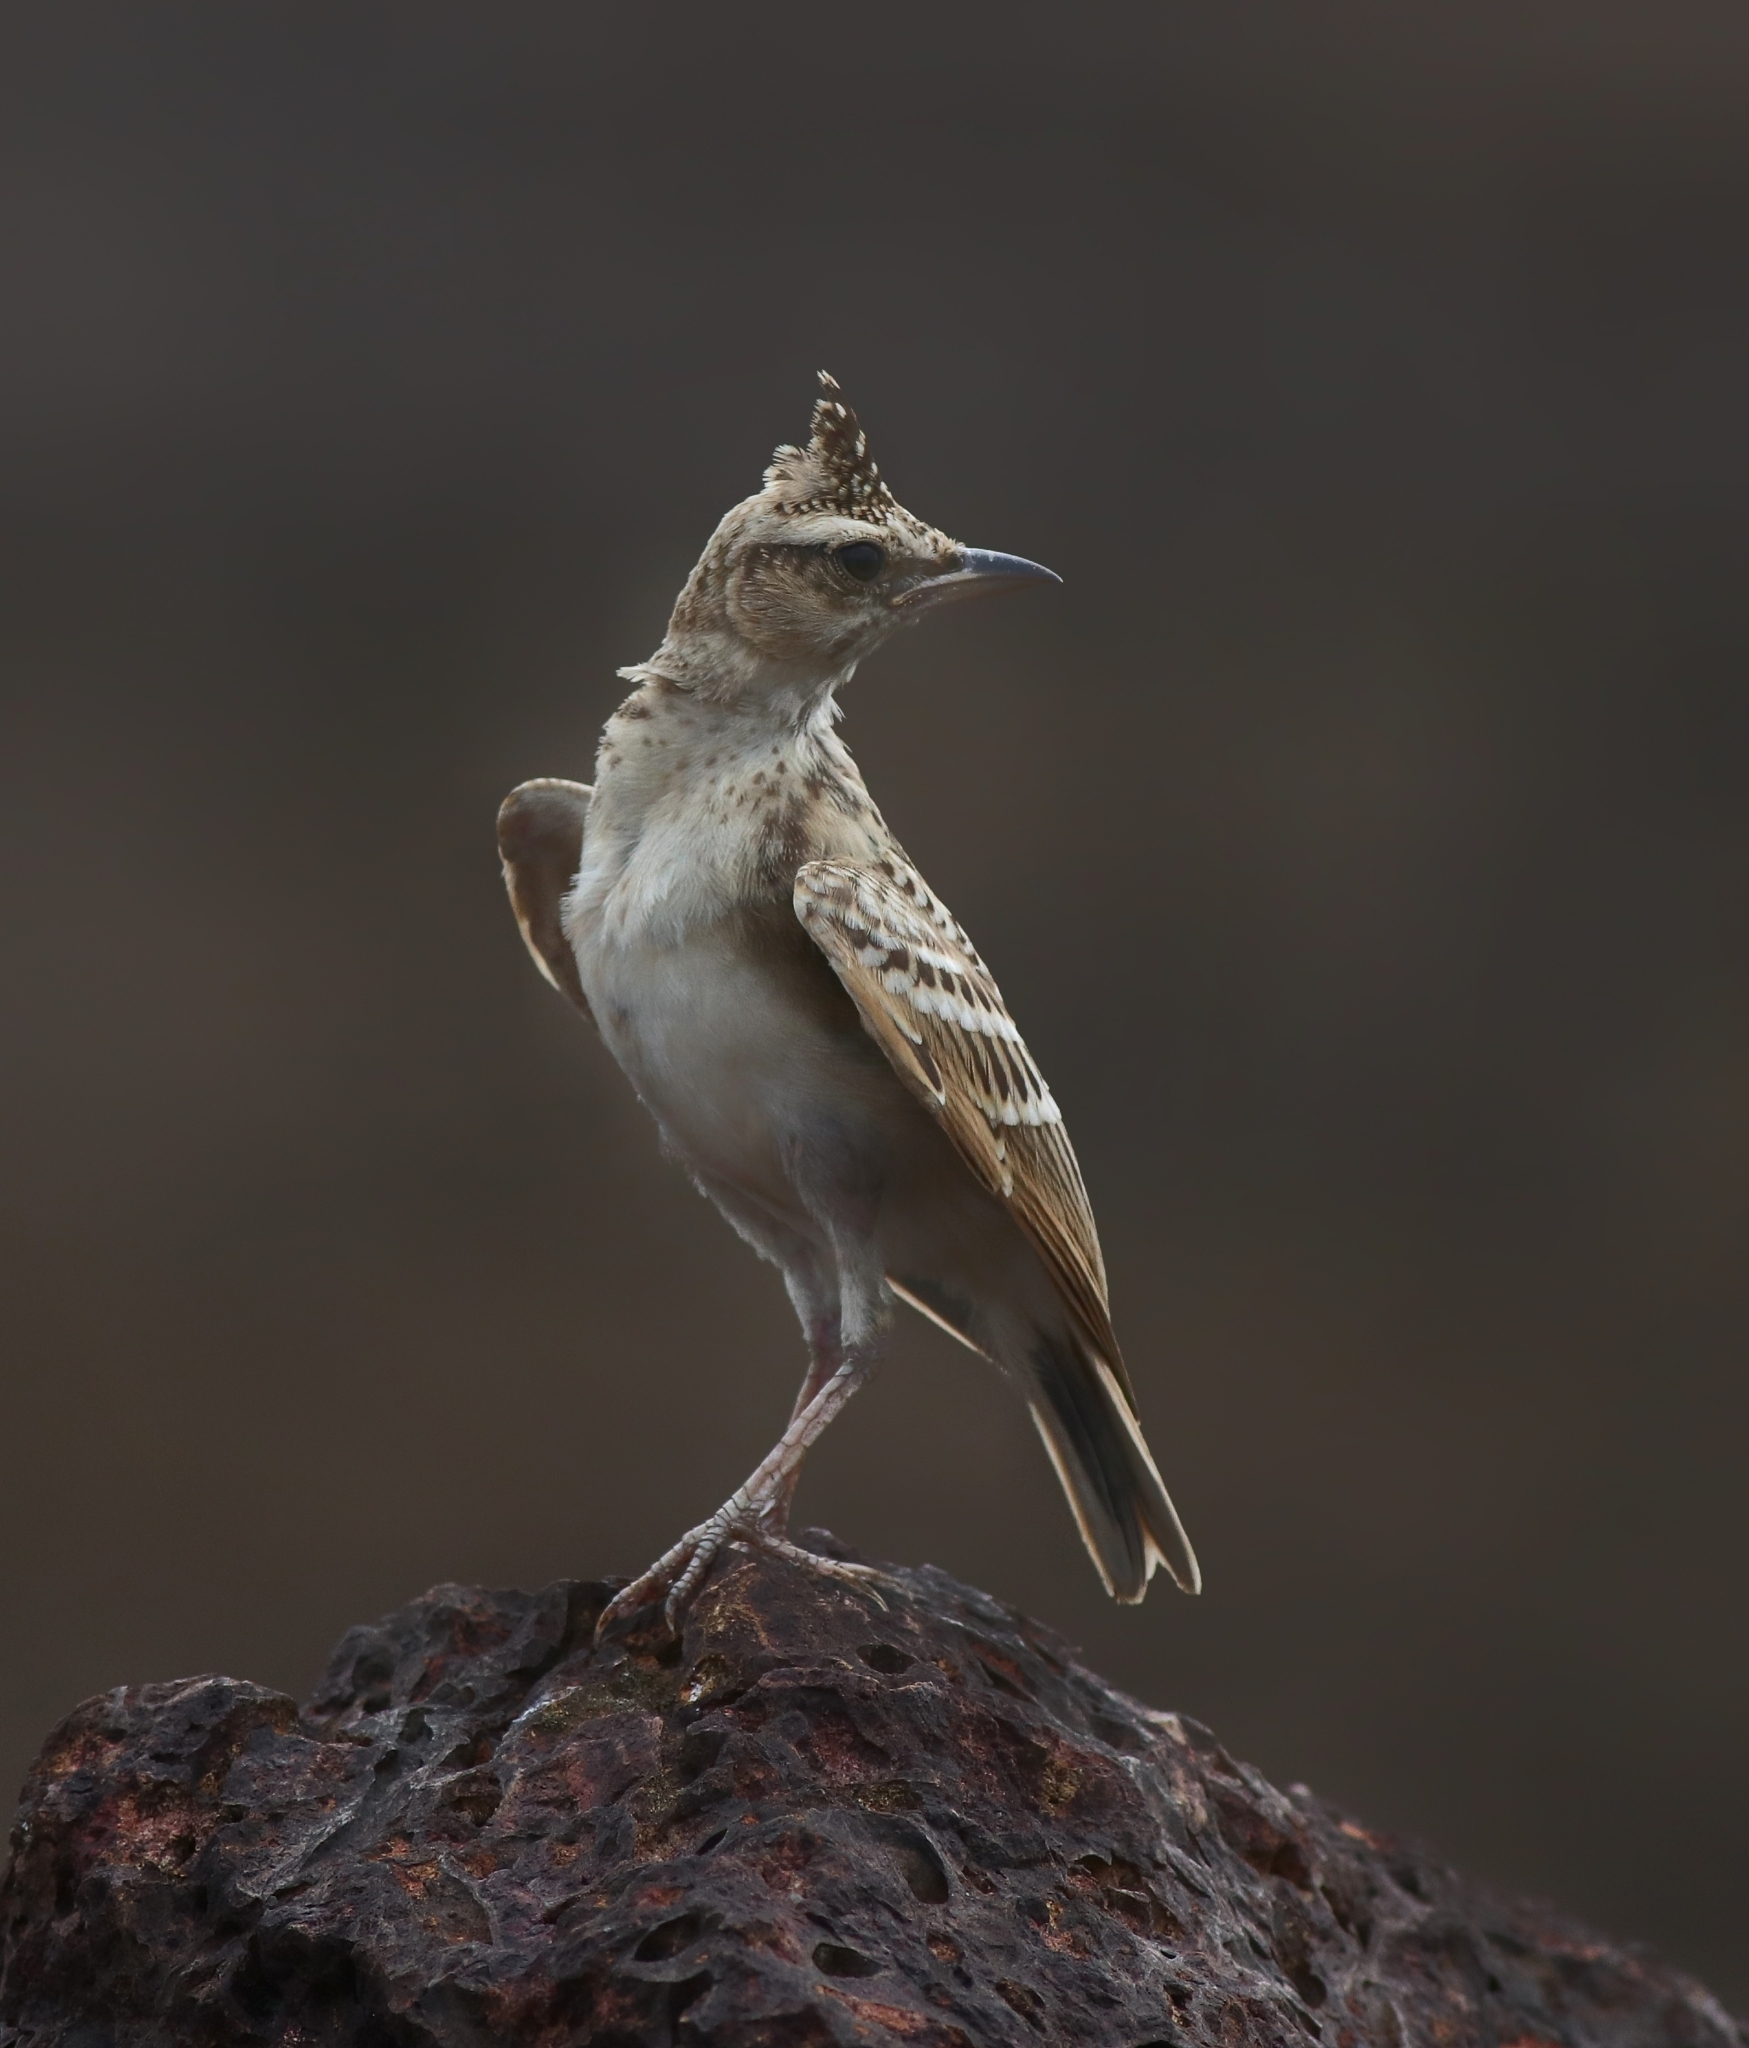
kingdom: Animalia
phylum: Chordata
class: Aves
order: Passeriformes
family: Alaudidae
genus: Galerida
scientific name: Galerida malabarica
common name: Malabar lark
